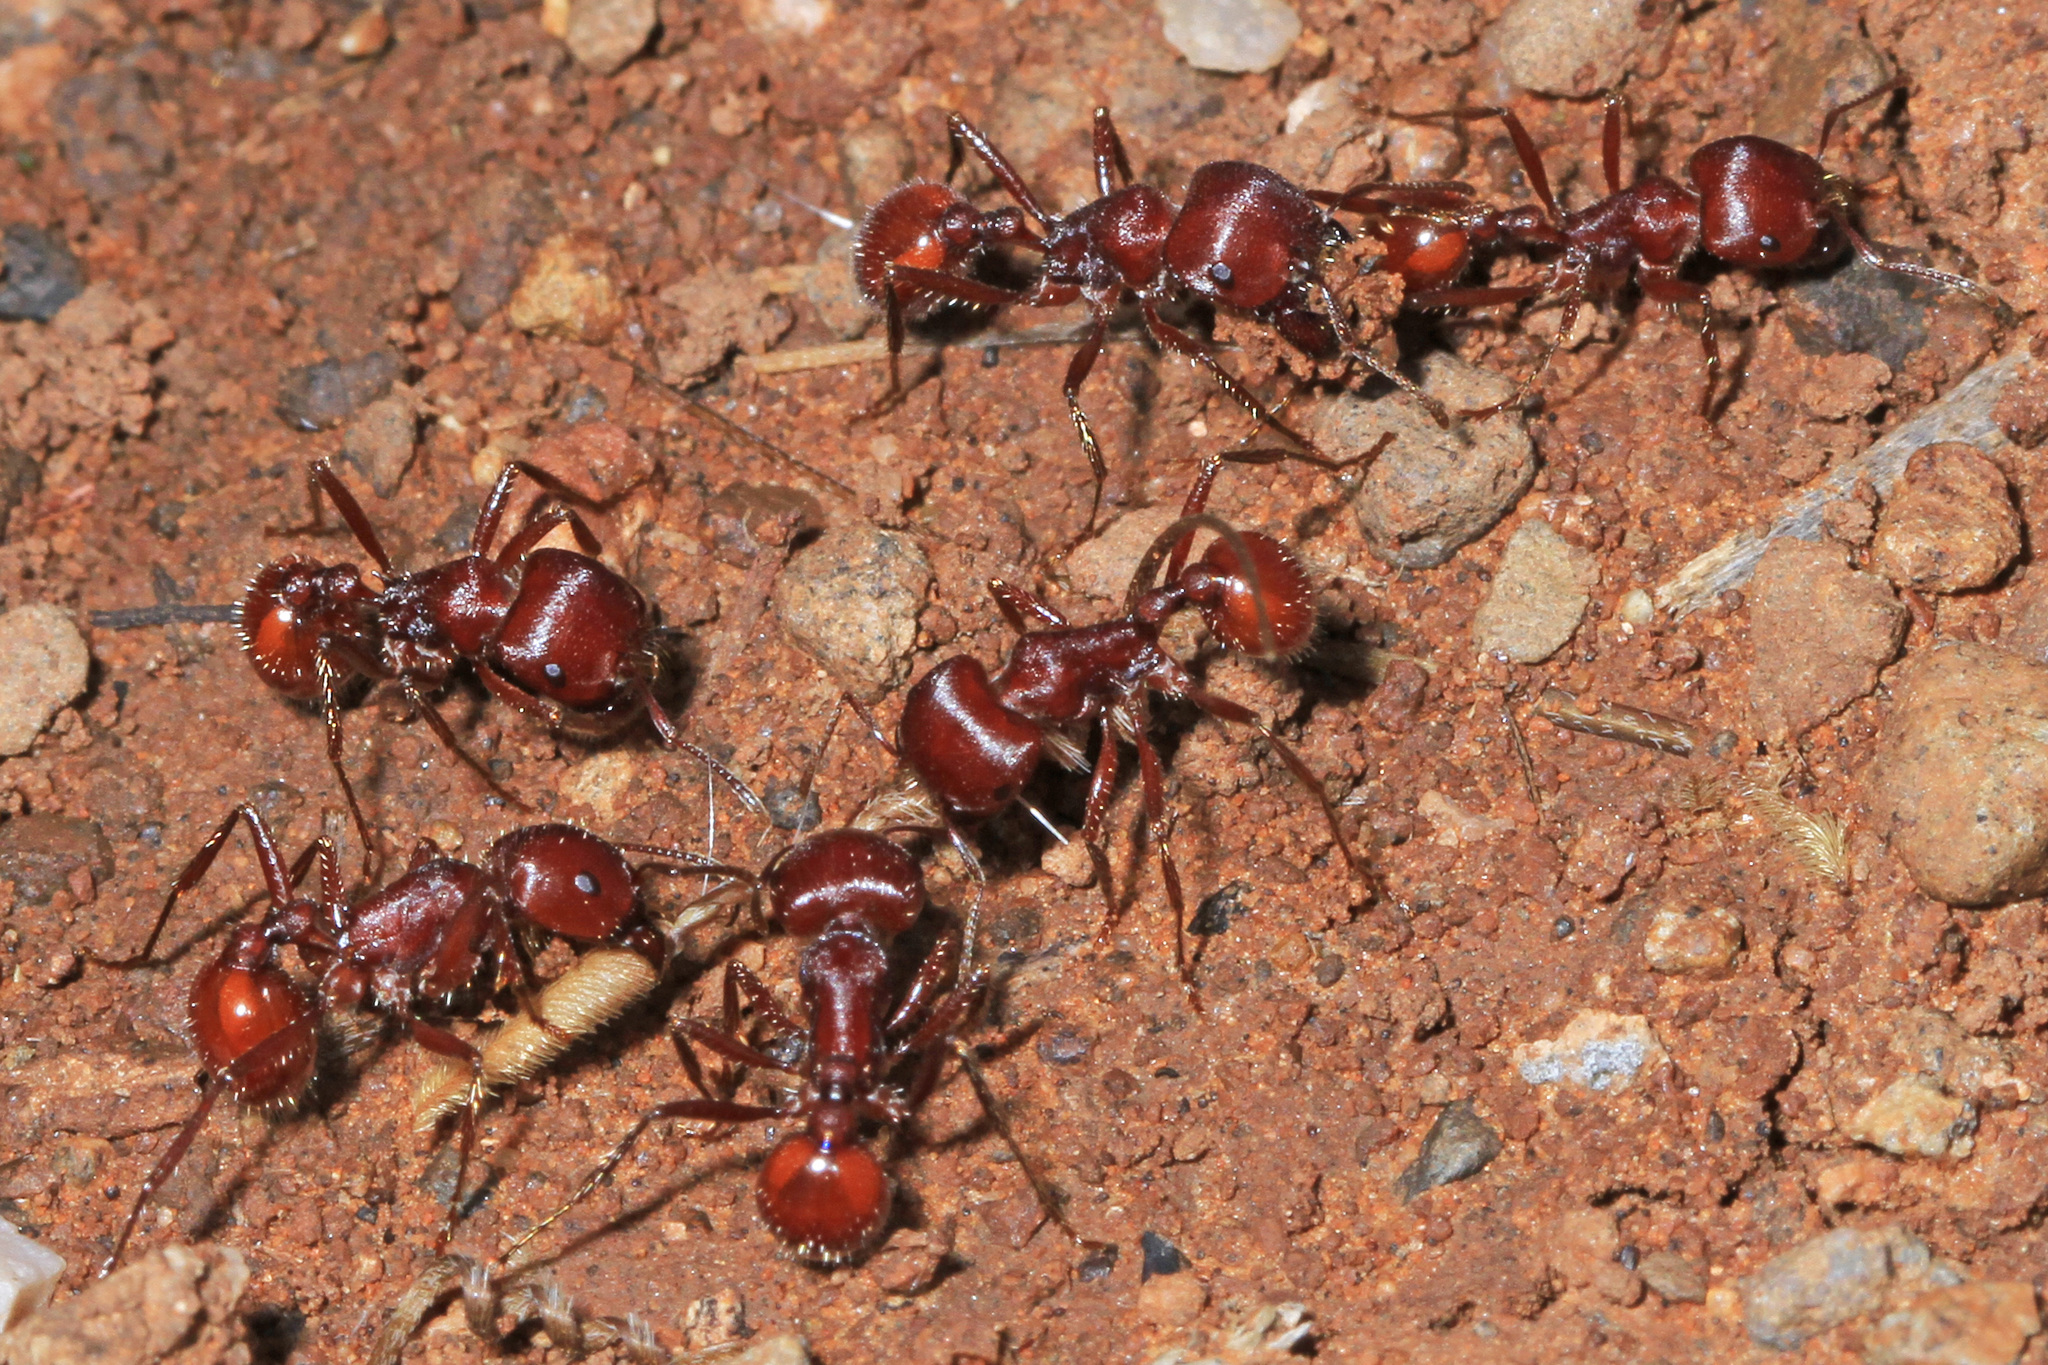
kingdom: Animalia
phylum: Arthropoda
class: Insecta
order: Hymenoptera
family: Formicidae
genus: Pogonomyrmex
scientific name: Pogonomyrmex barbatus
